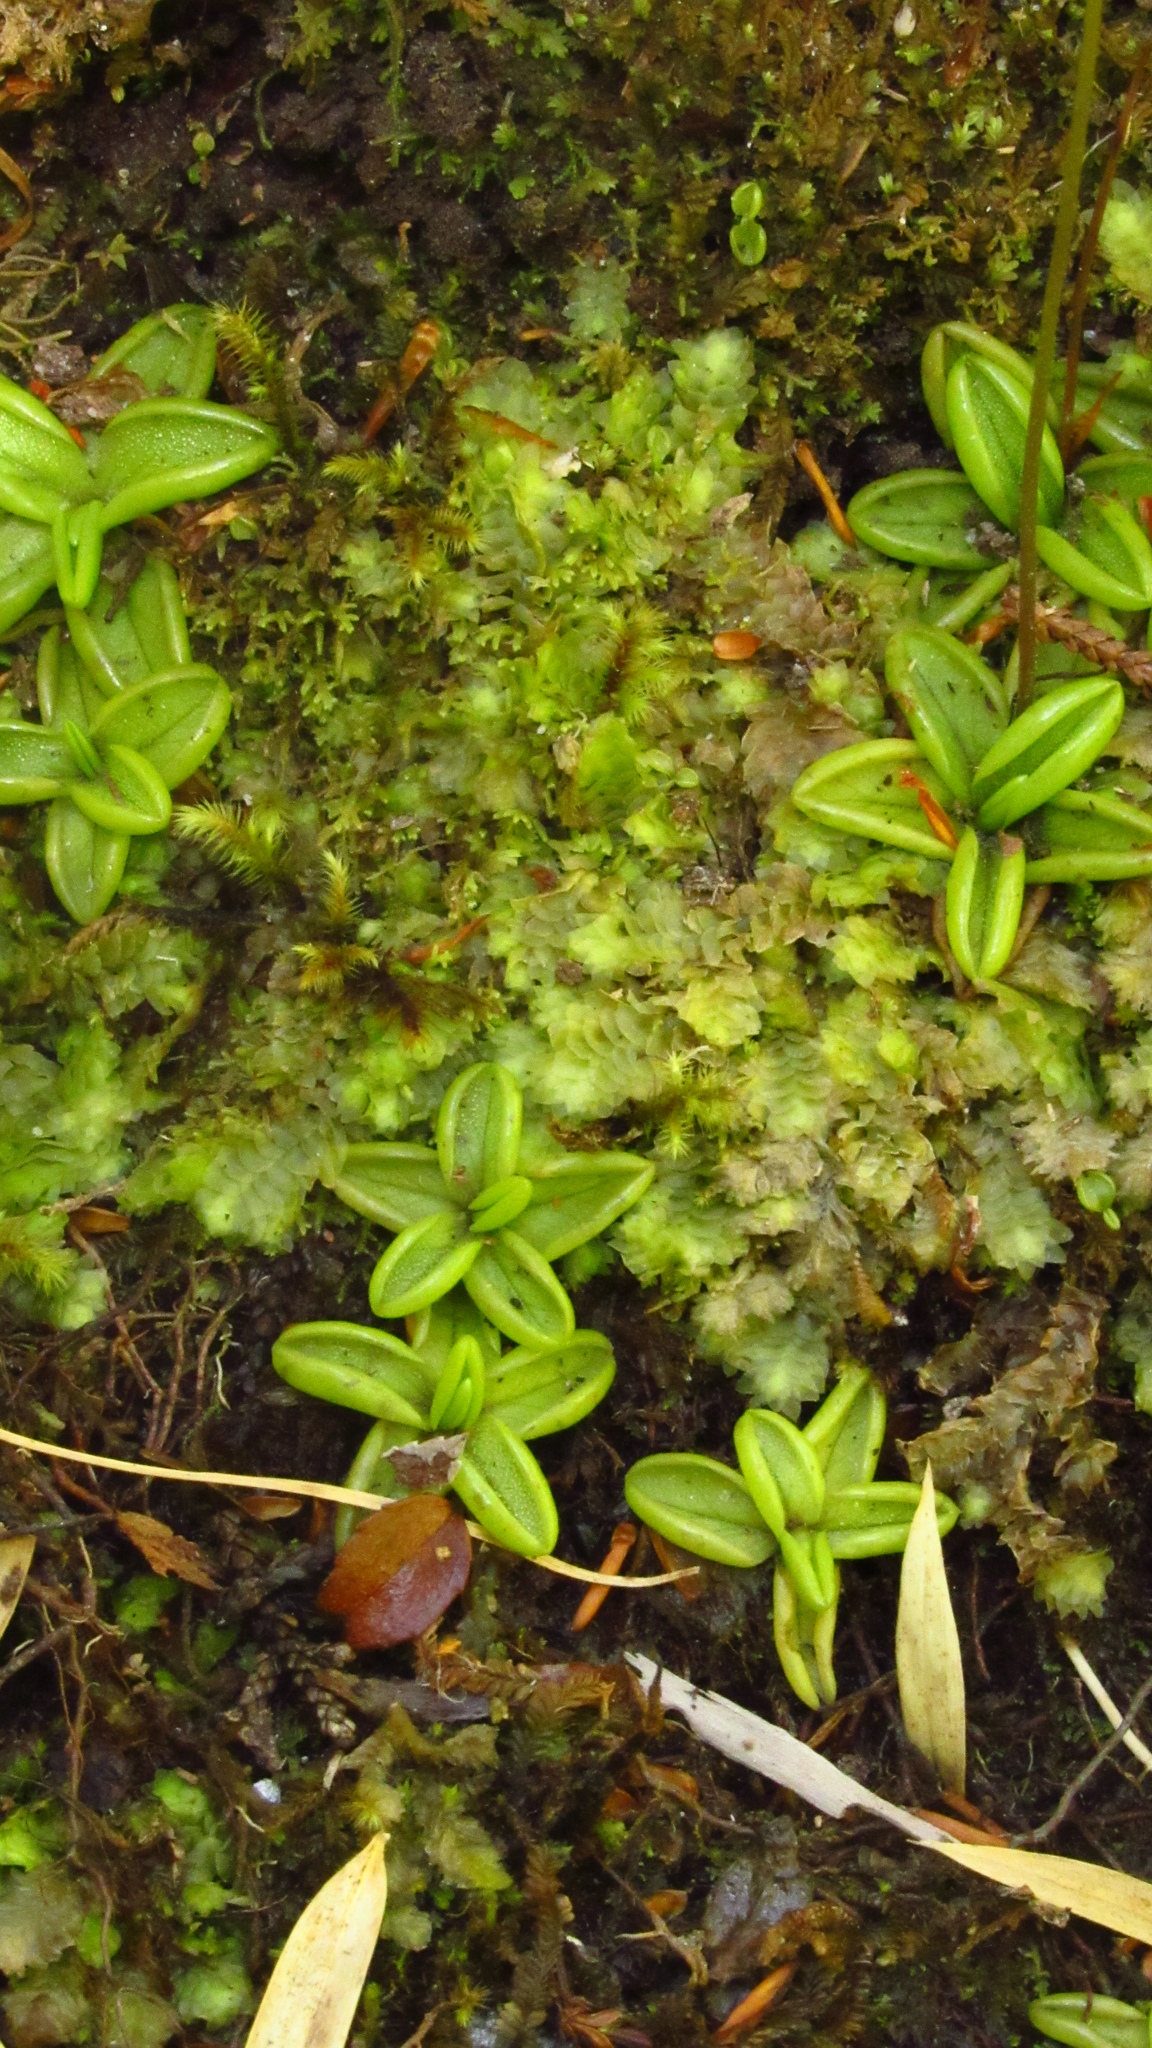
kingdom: Plantae
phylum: Tracheophyta
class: Magnoliopsida
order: Lamiales
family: Lentibulariaceae
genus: Pinguicula
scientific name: Pinguicula antarctica
